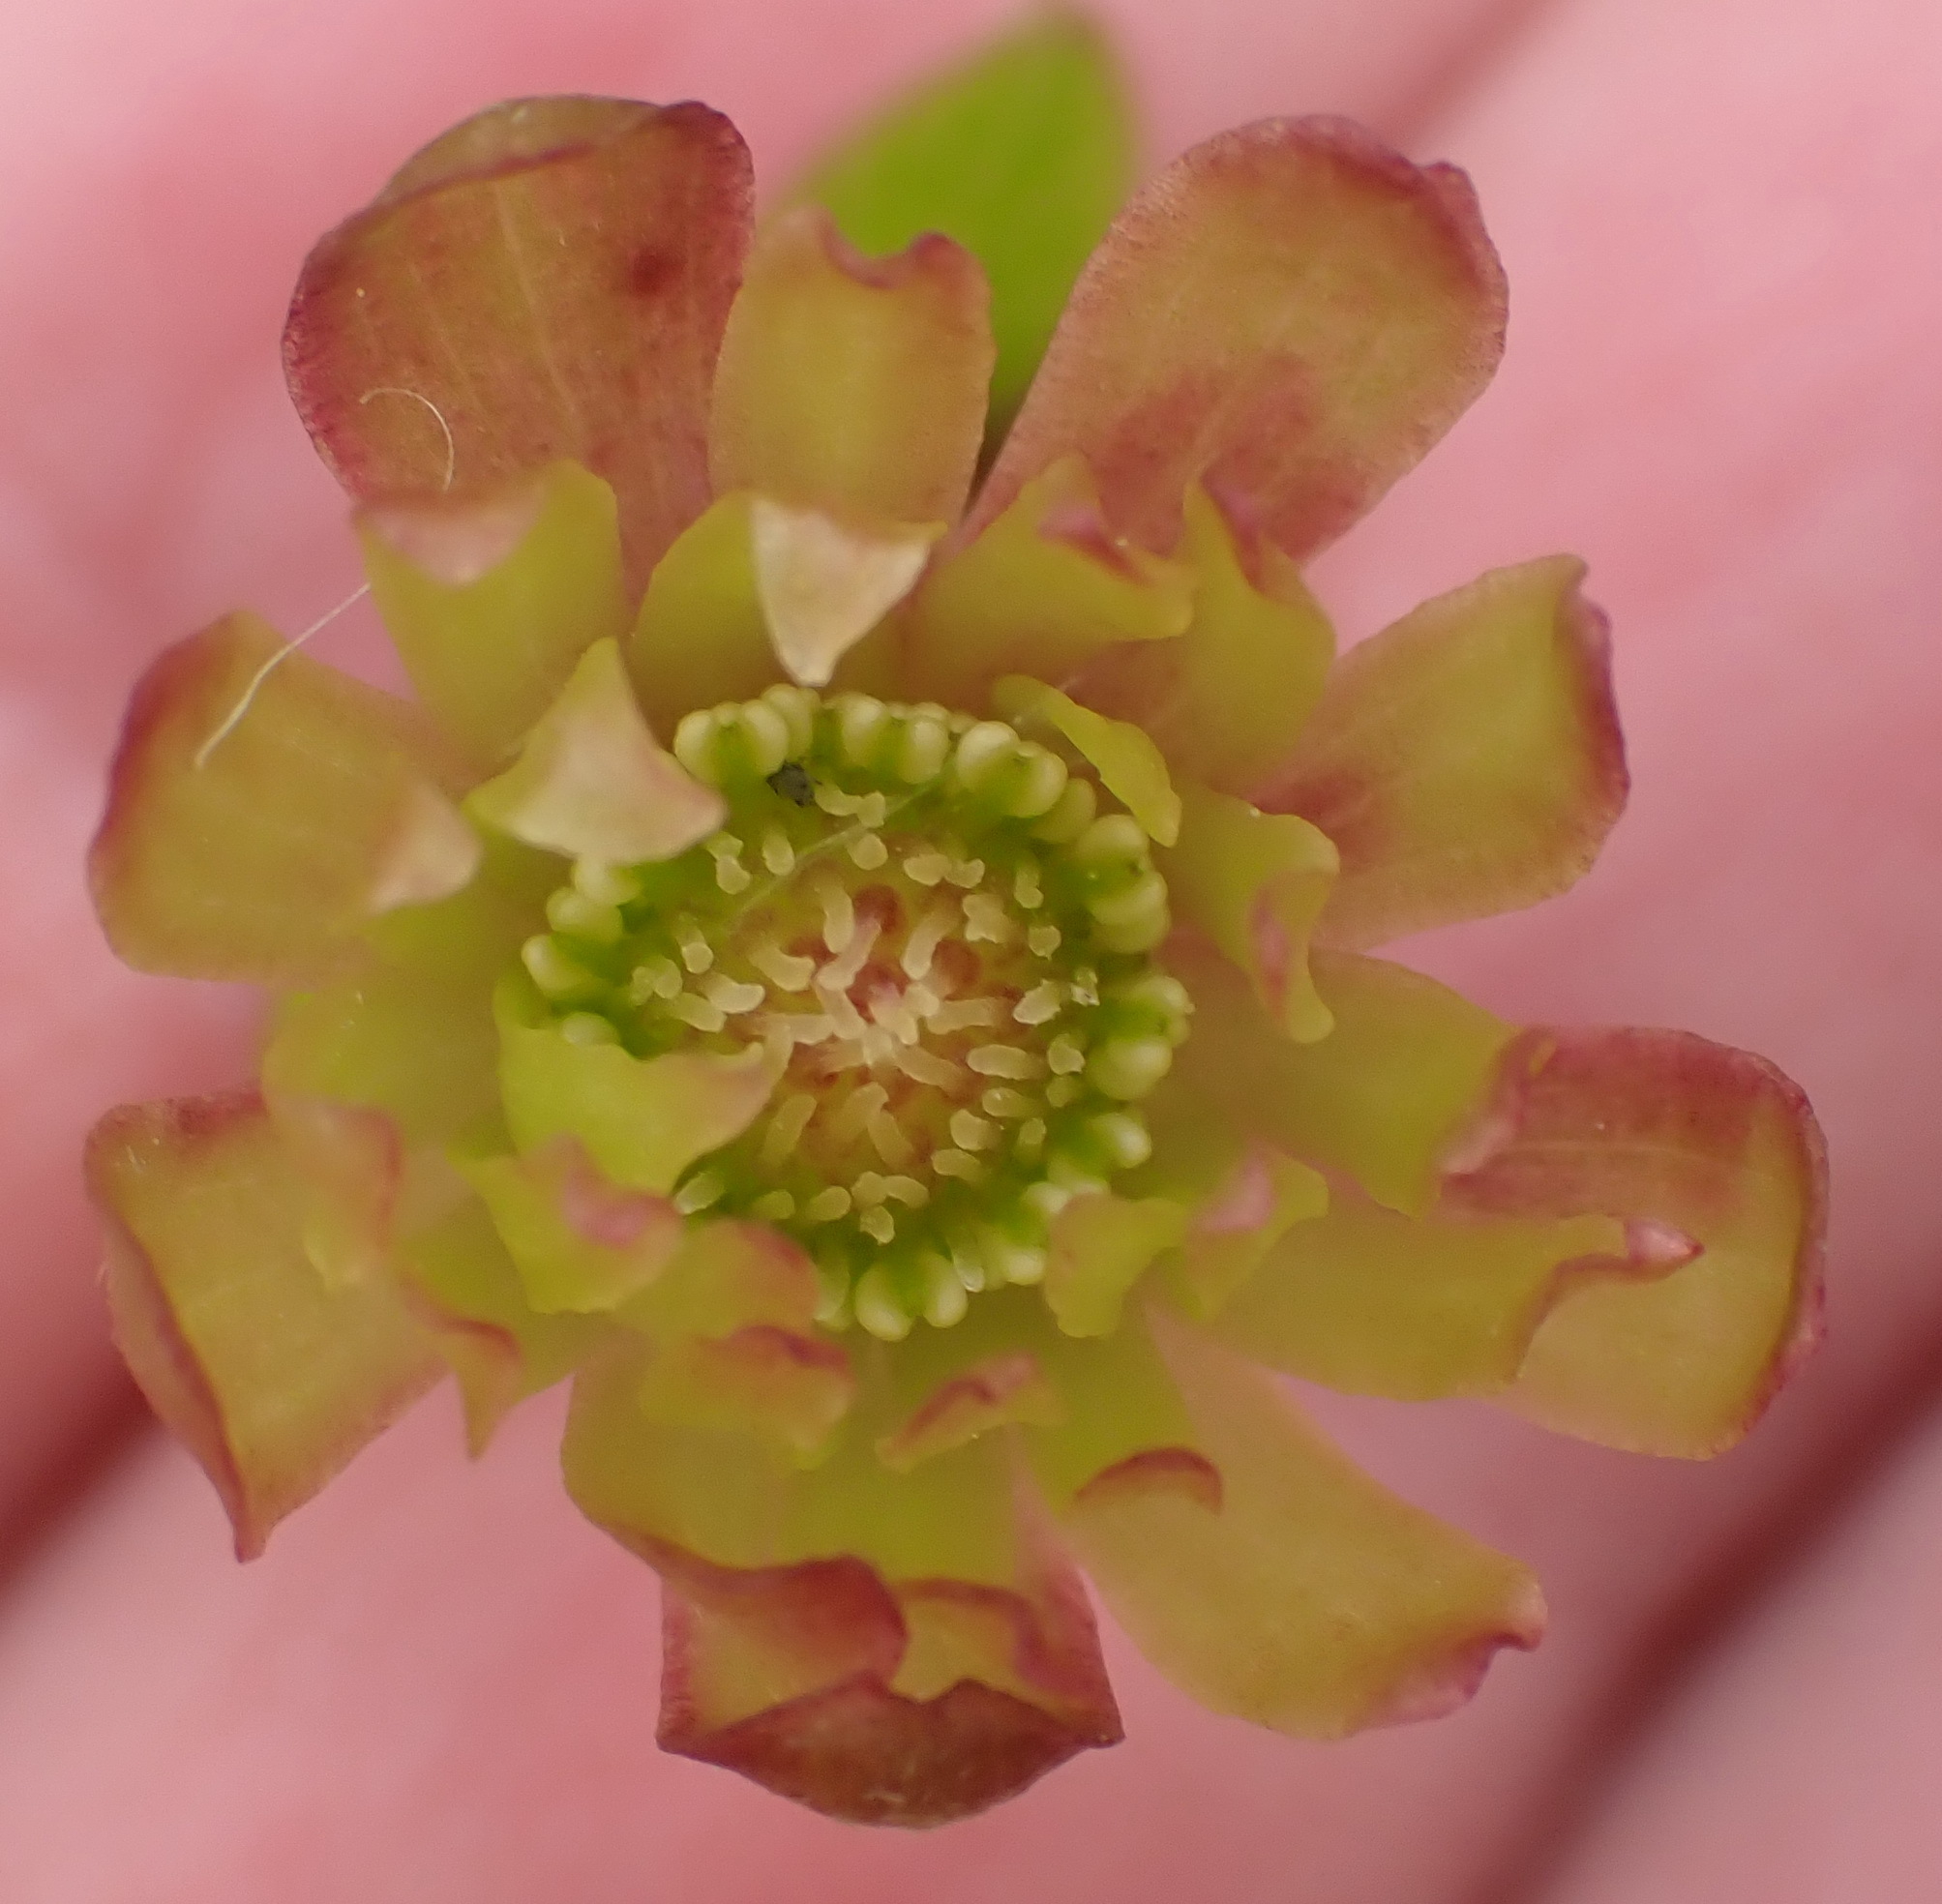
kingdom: Plantae
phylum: Tracheophyta
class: Magnoliopsida
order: Ranunculales
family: Ranunculaceae
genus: Knowltonia
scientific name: Knowltonia vesicatoria
